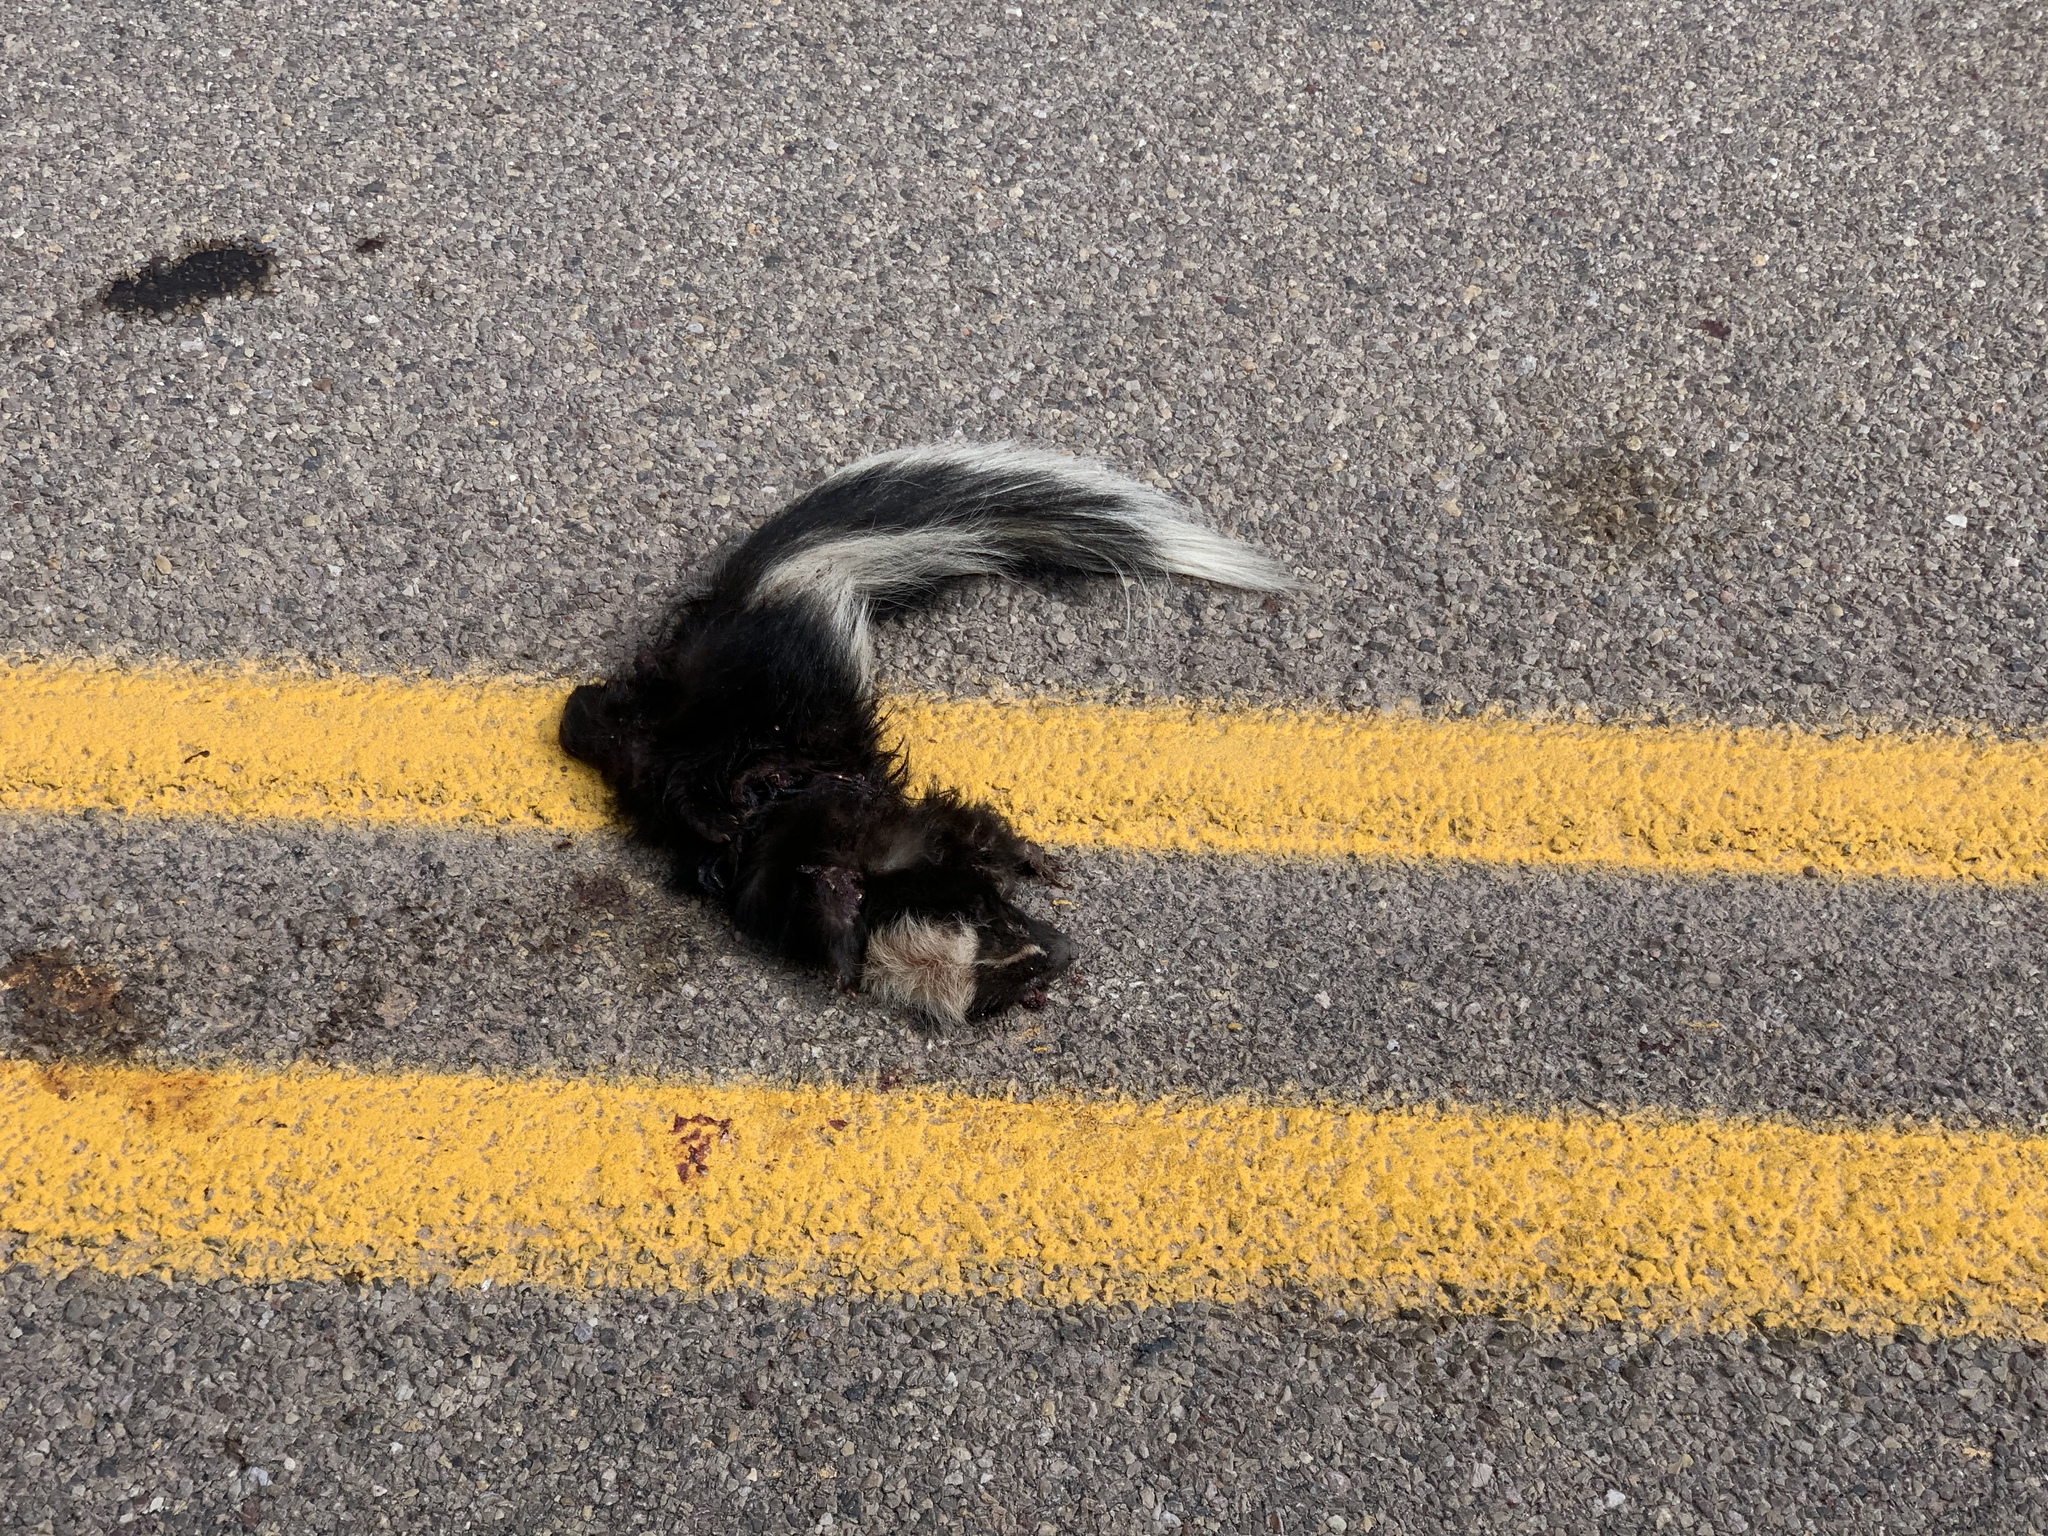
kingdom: Animalia
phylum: Chordata
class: Mammalia
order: Carnivora
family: Mephitidae
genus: Mephitis
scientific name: Mephitis mephitis
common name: Striped skunk
